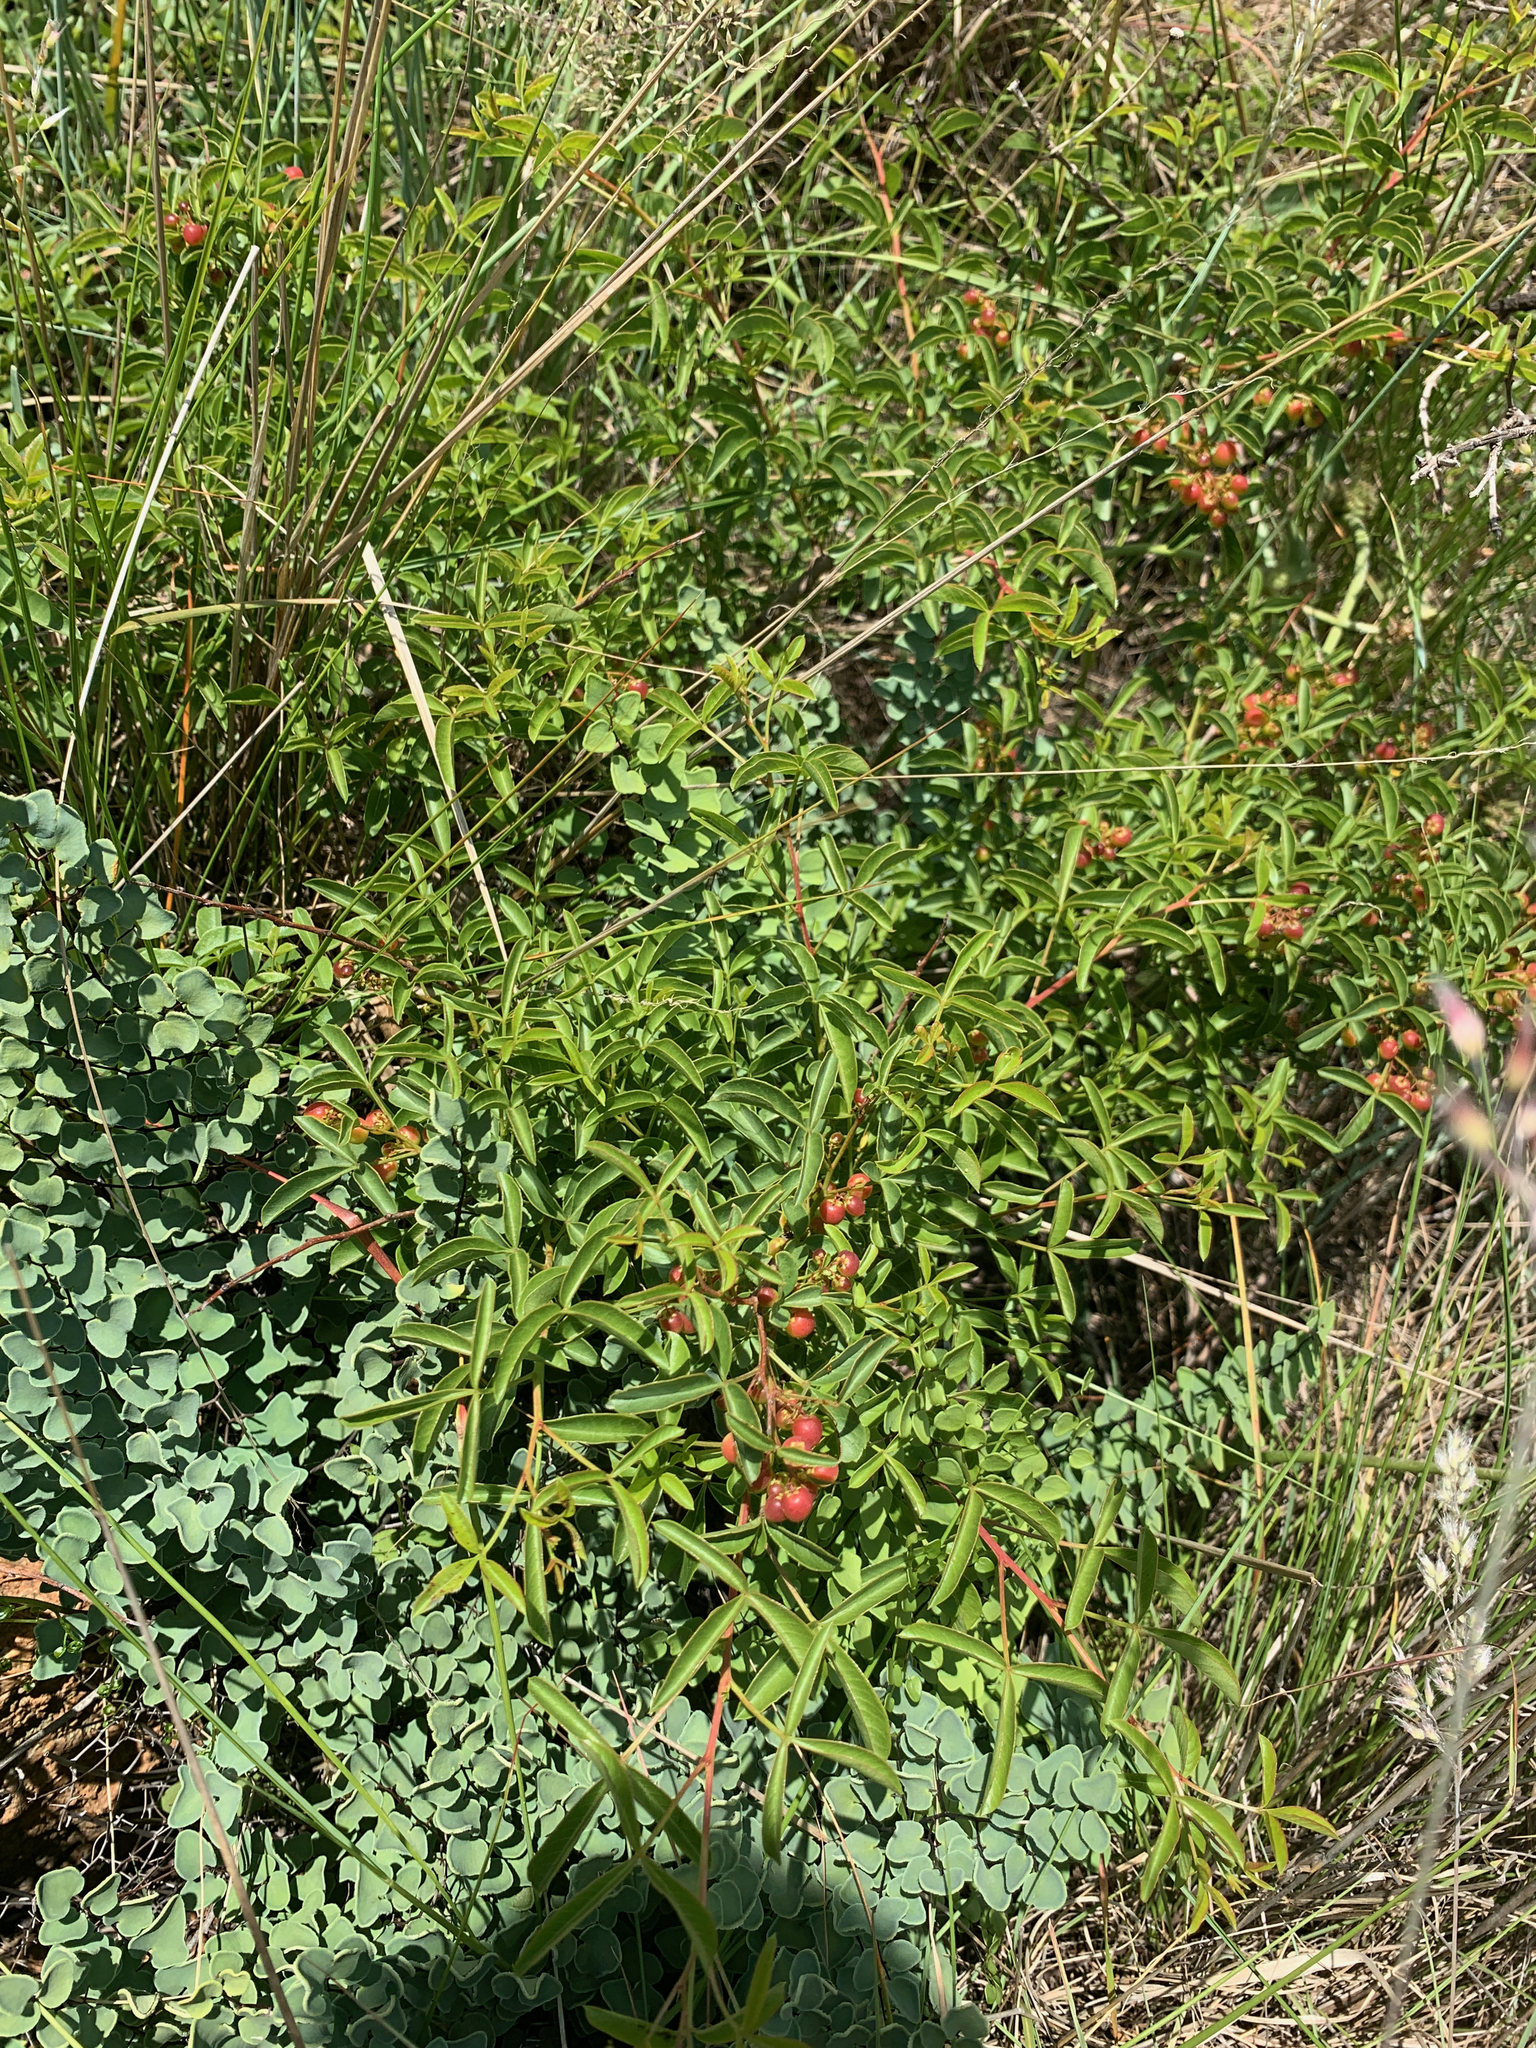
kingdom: Plantae
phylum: Tracheophyta
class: Magnoliopsida
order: Sapindales
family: Anacardiaceae
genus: Searsia
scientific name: Searsia rigida
